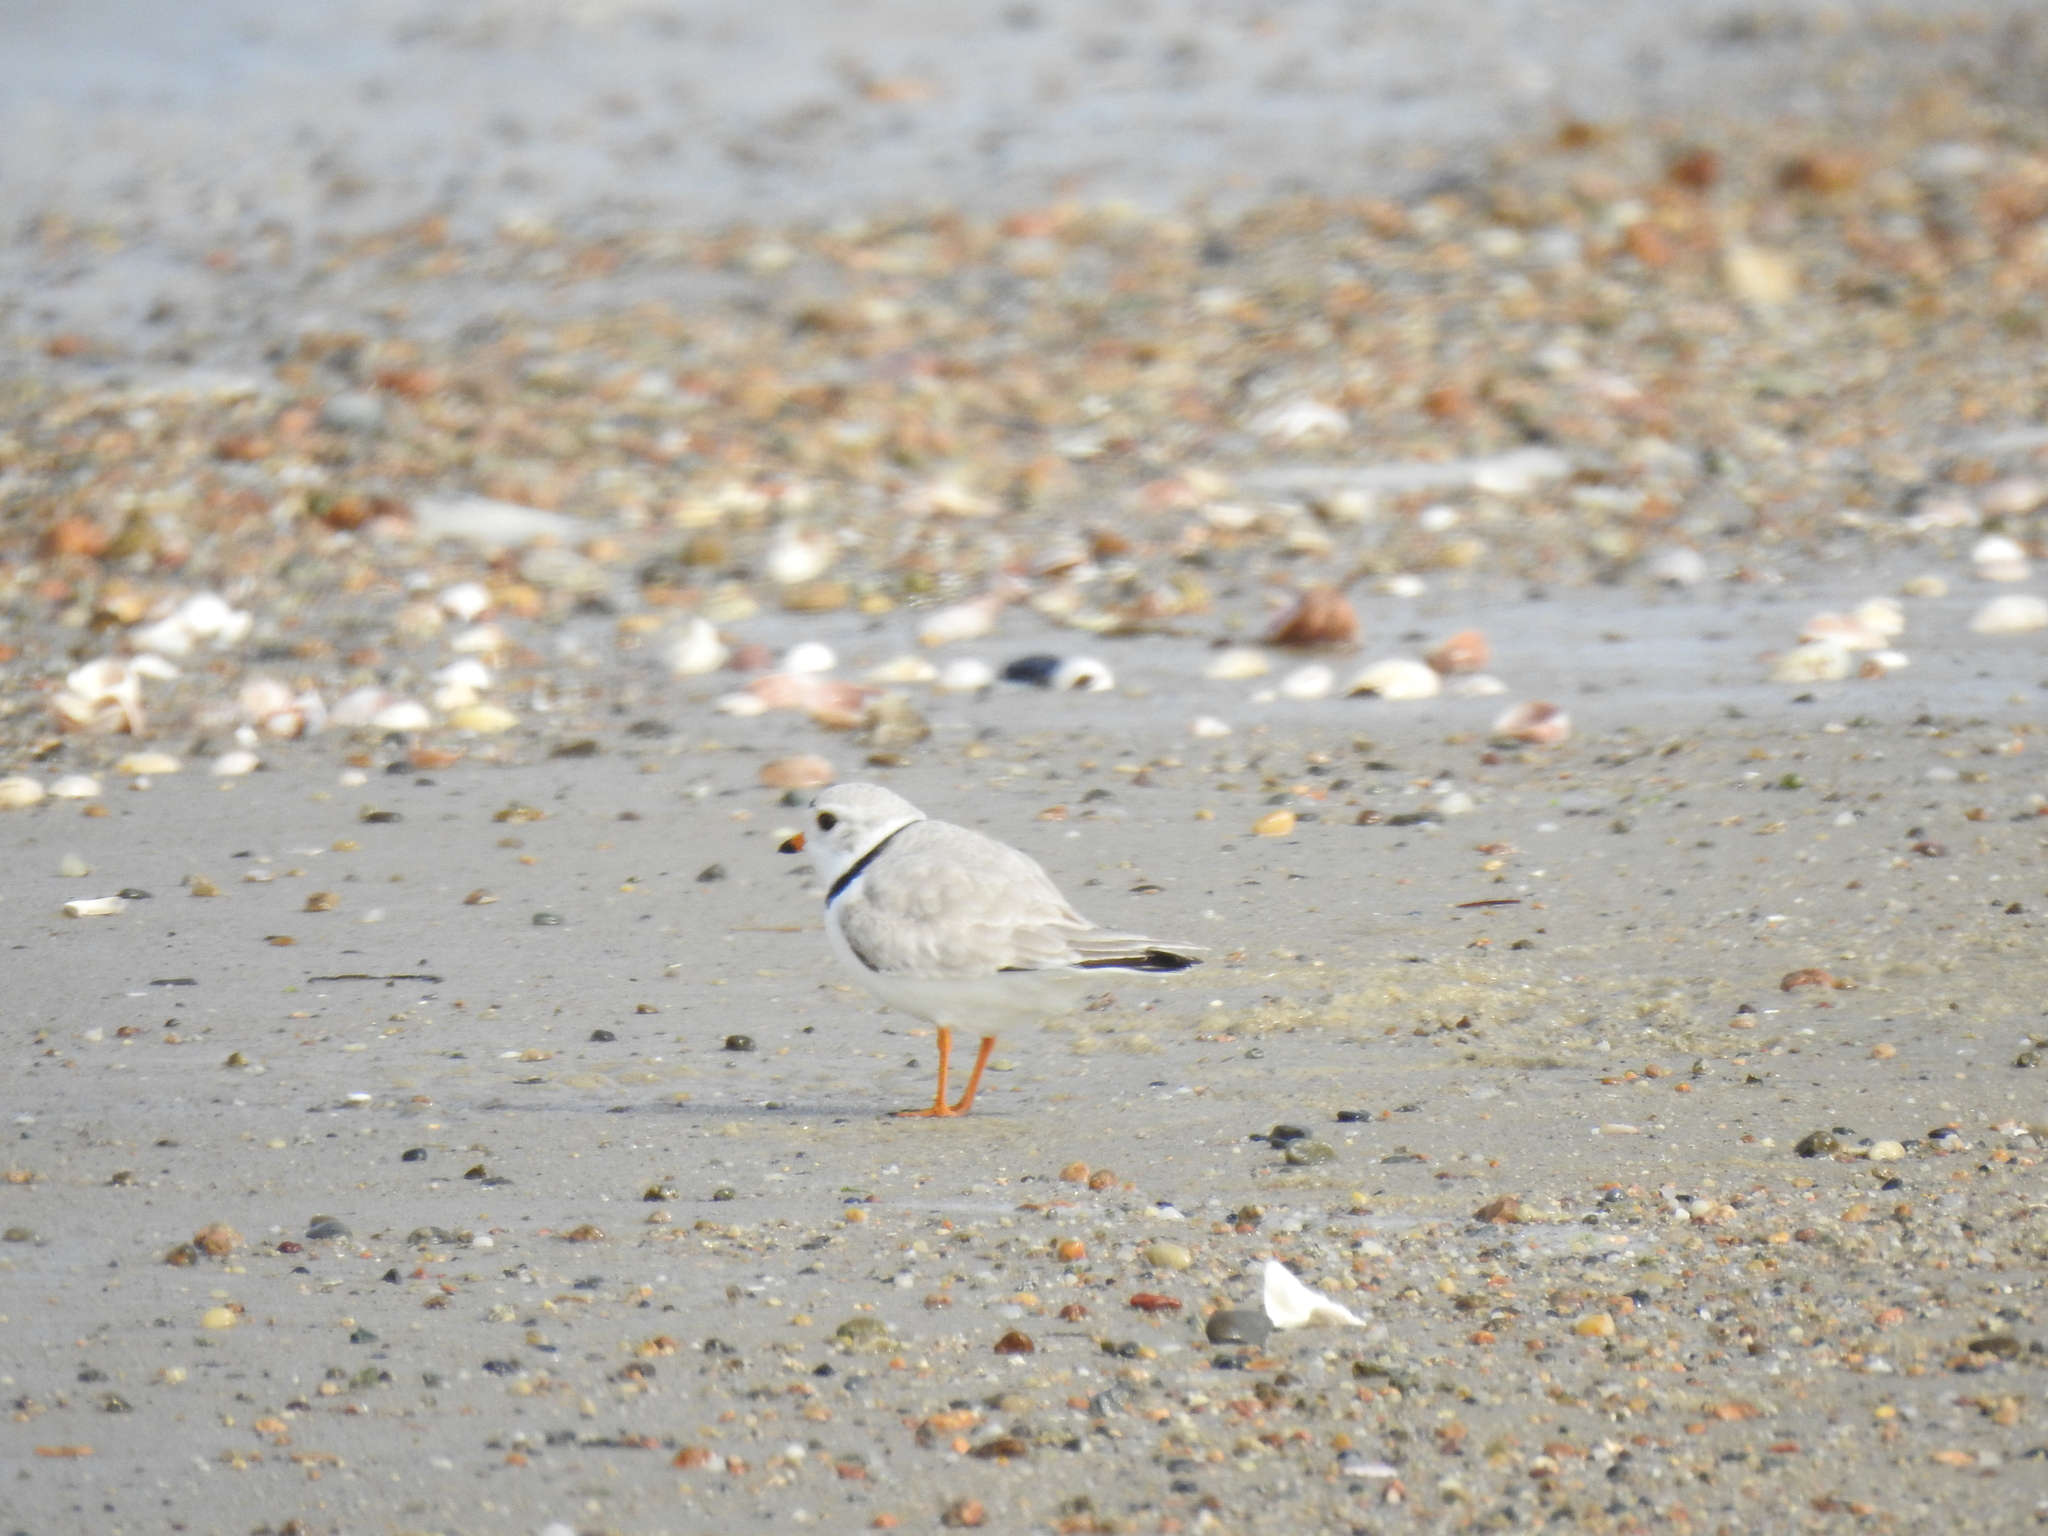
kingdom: Animalia
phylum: Chordata
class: Aves
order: Charadriiformes
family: Charadriidae
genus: Charadrius
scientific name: Charadrius melodus
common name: Piping plover
